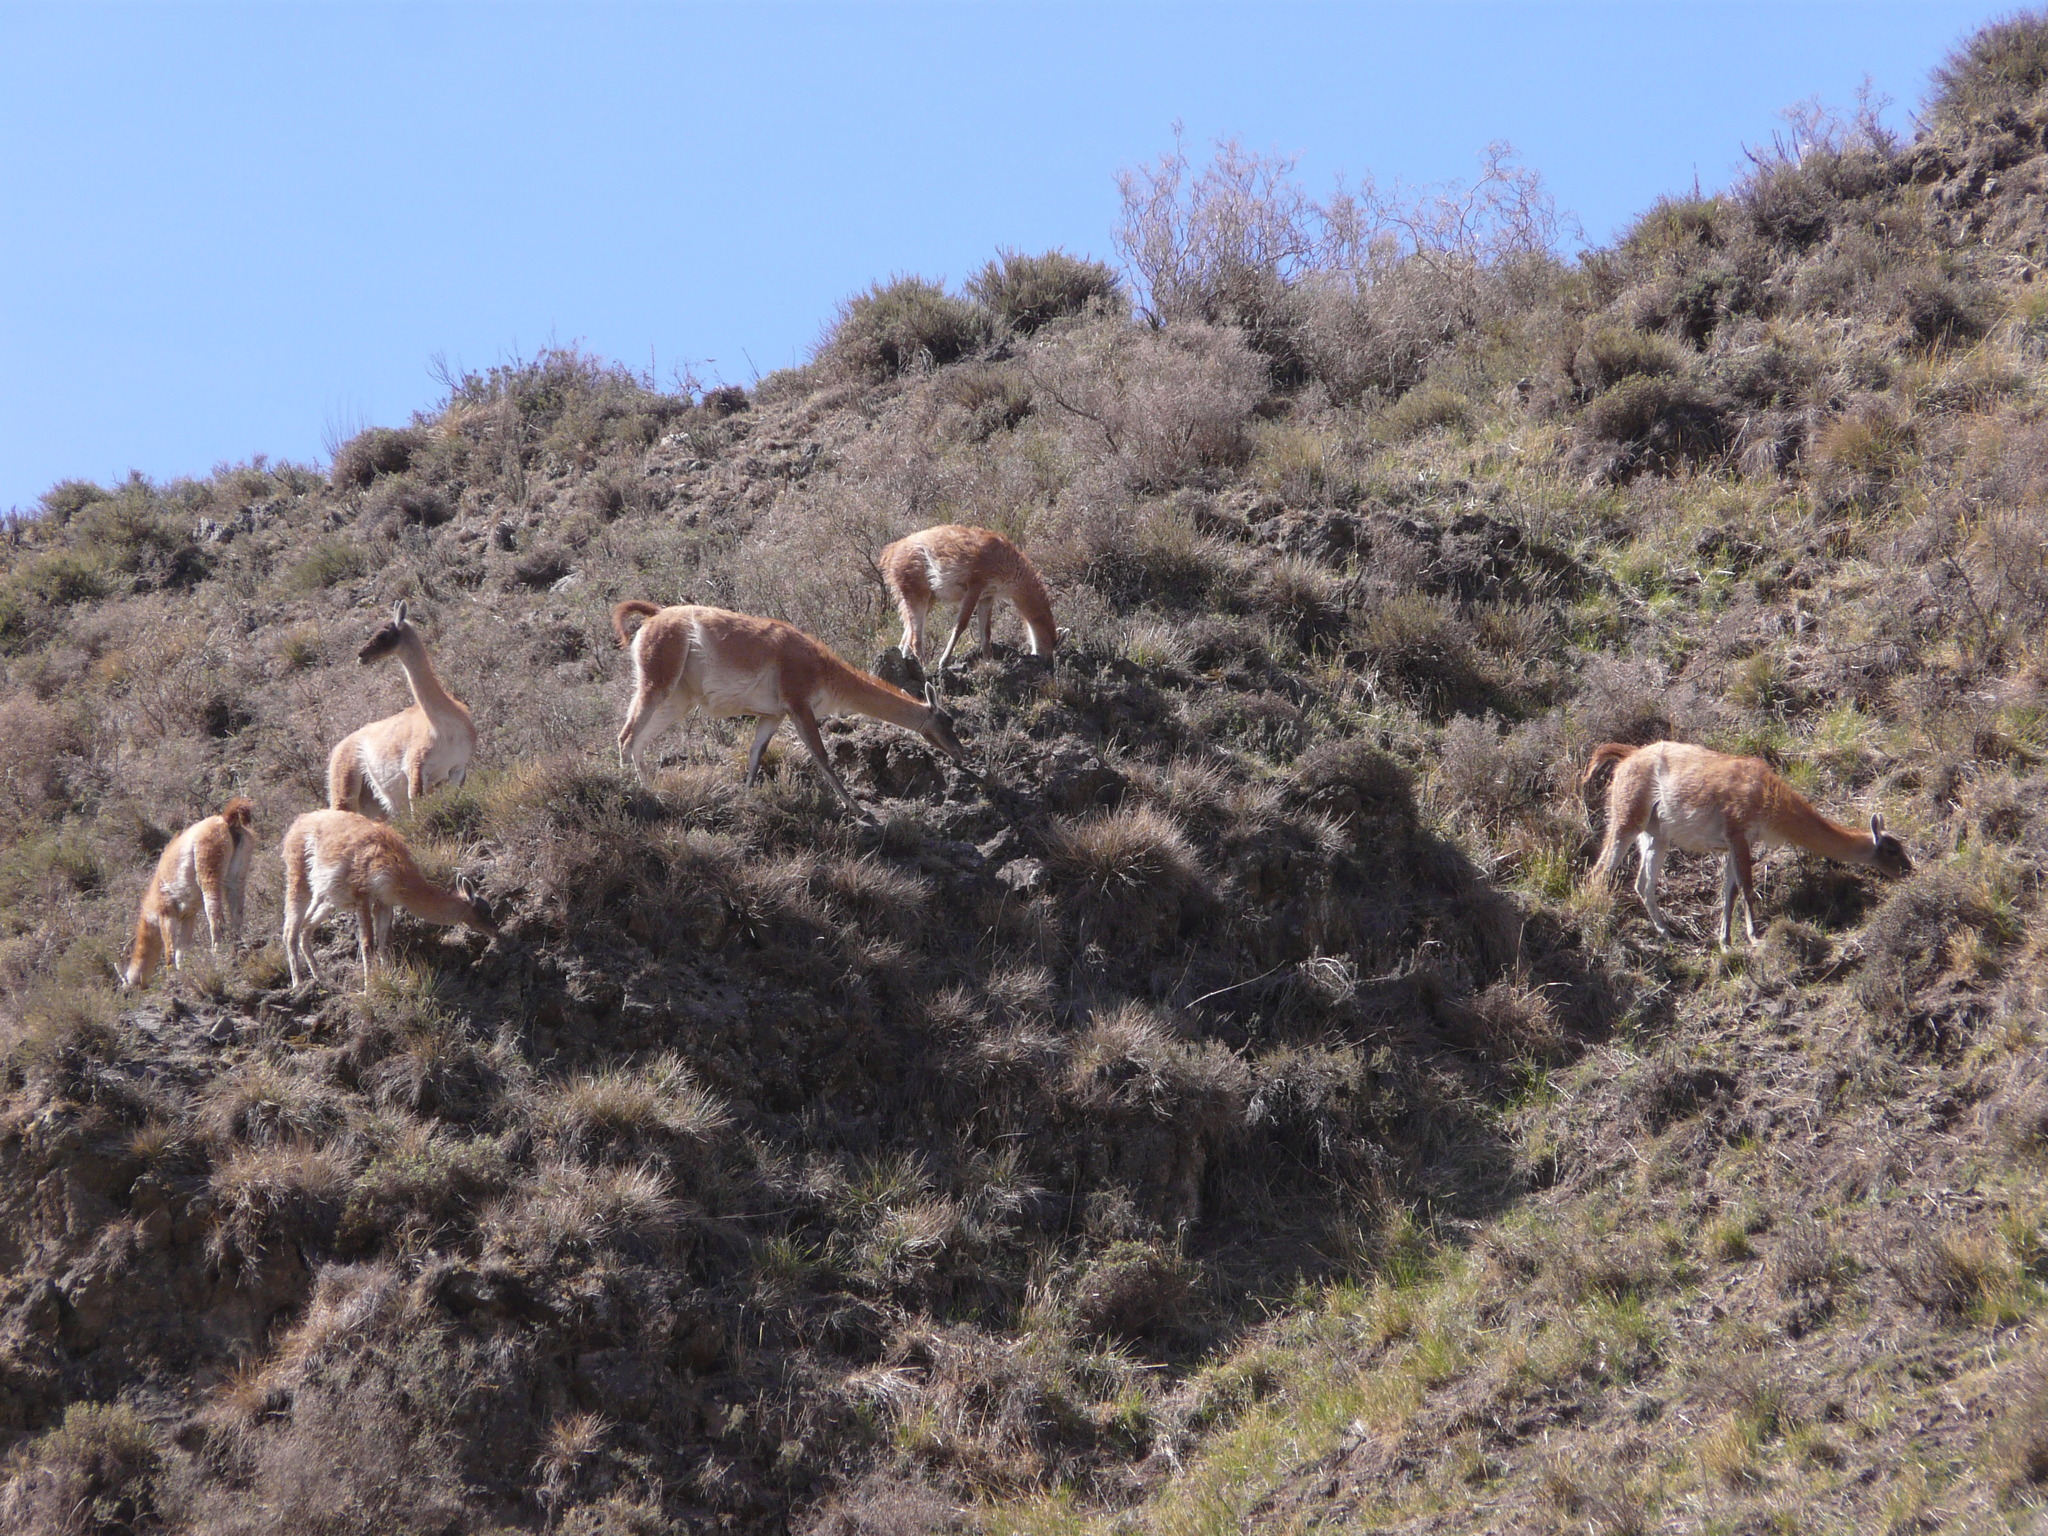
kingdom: Animalia
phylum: Chordata
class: Mammalia
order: Artiodactyla
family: Camelidae
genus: Lama
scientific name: Lama glama
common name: Llama
